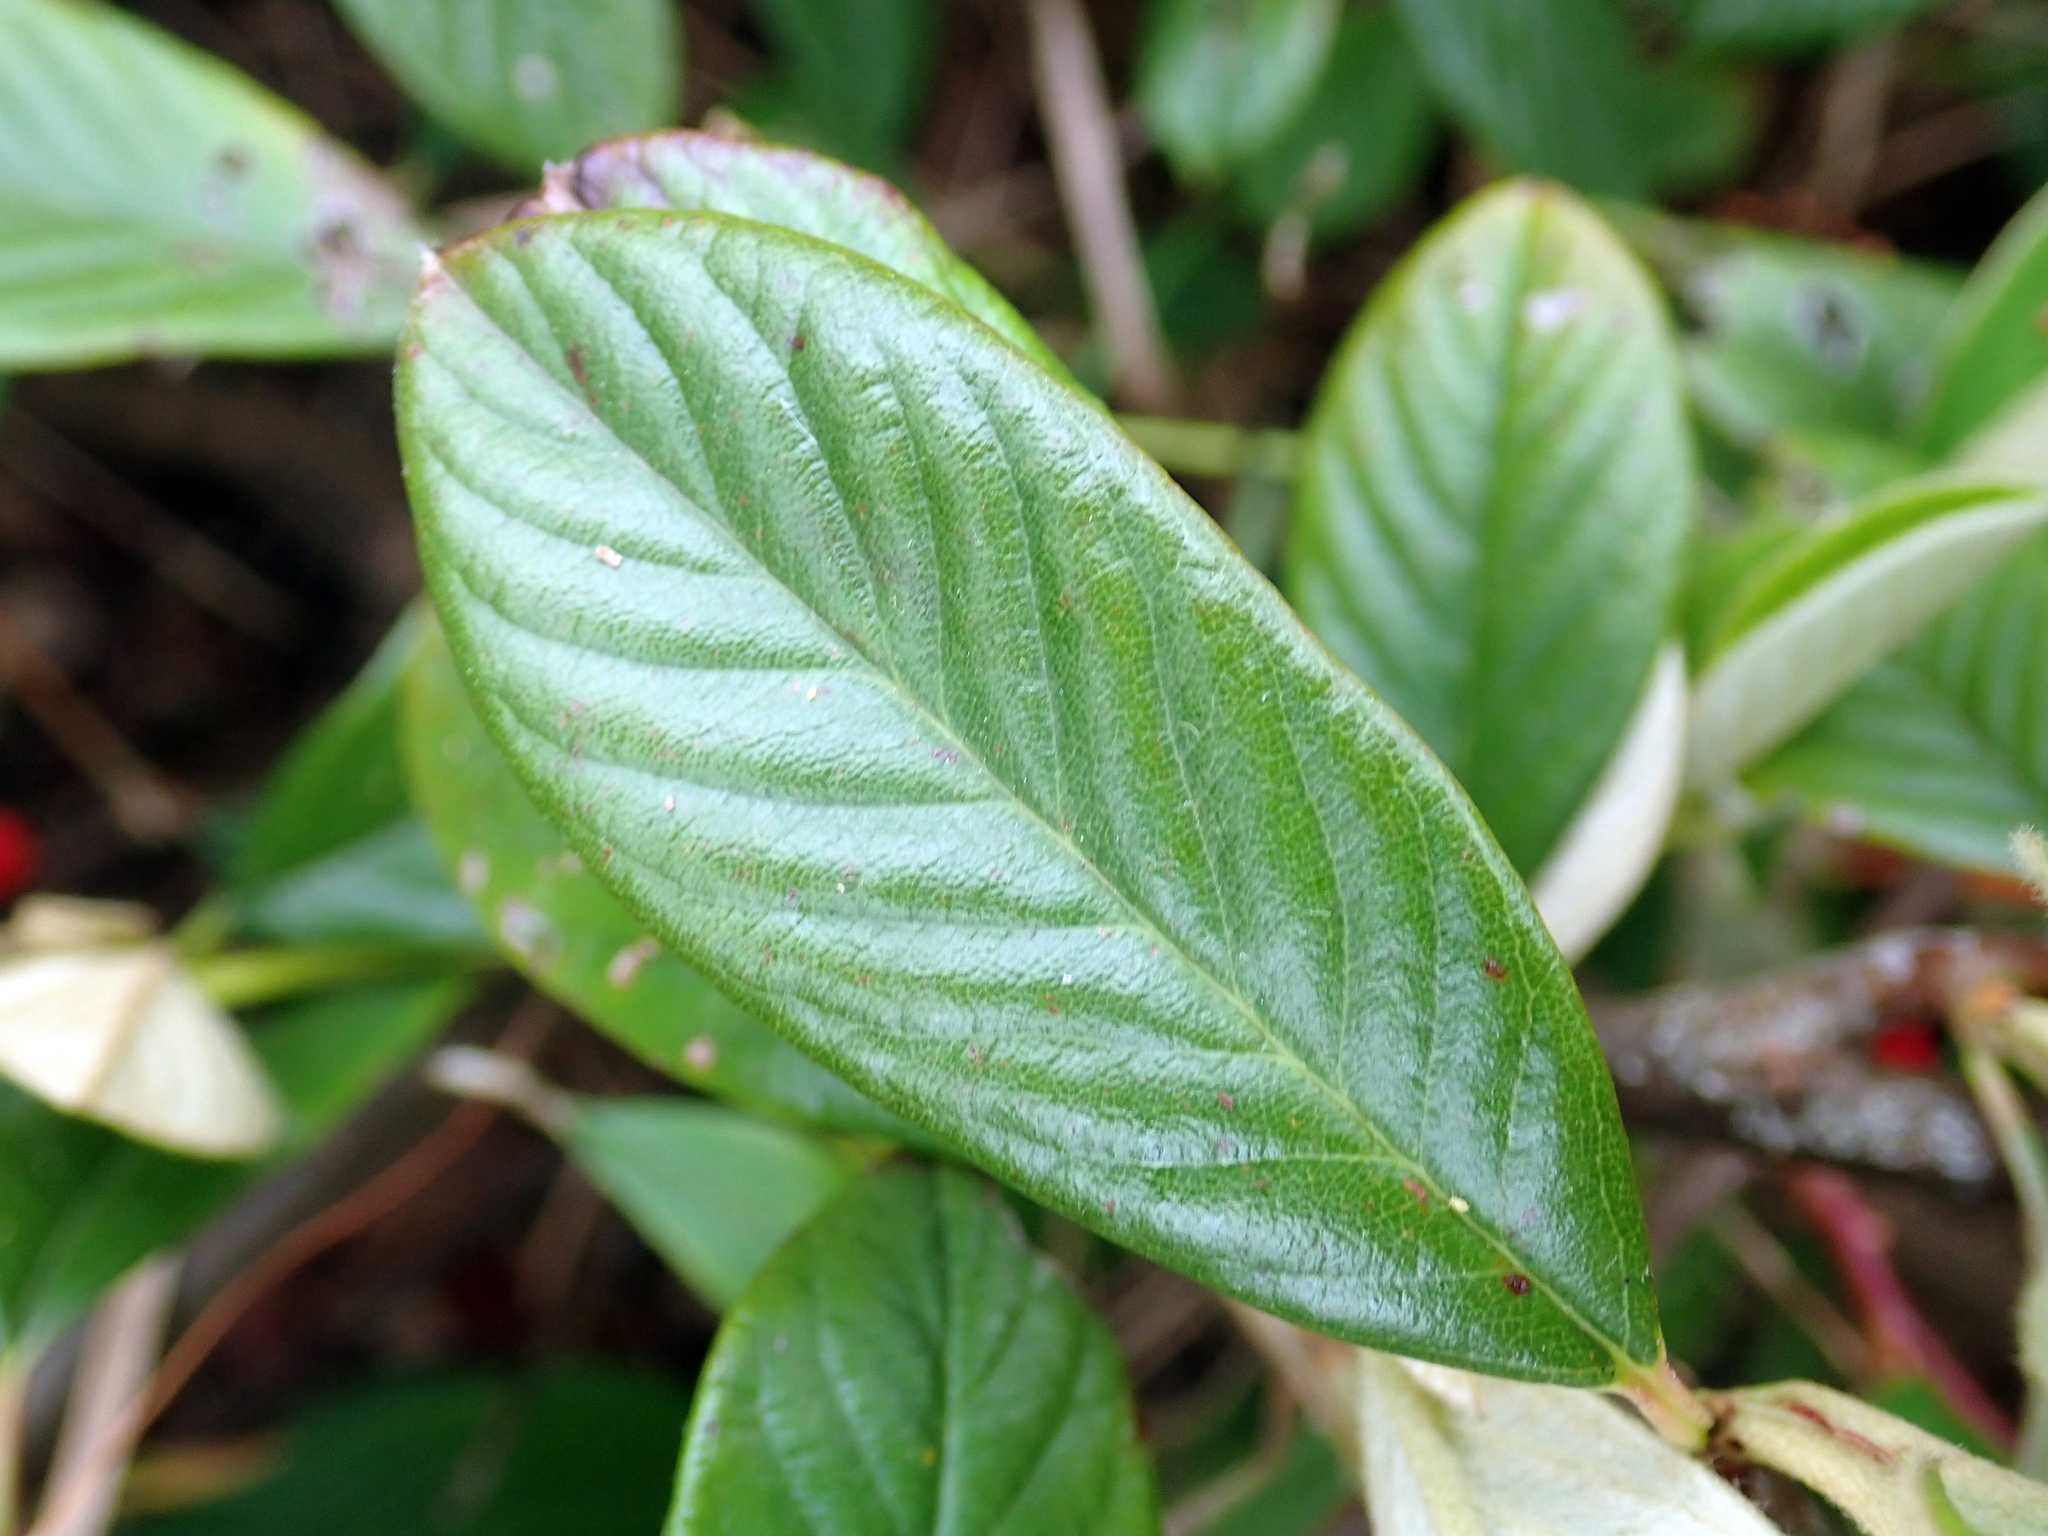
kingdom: Plantae
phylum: Tracheophyta
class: Magnoliopsida
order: Rosales
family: Rosaceae
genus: Cotoneaster
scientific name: Cotoneaster glaucophyllus
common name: Glaucous cotoneaster
